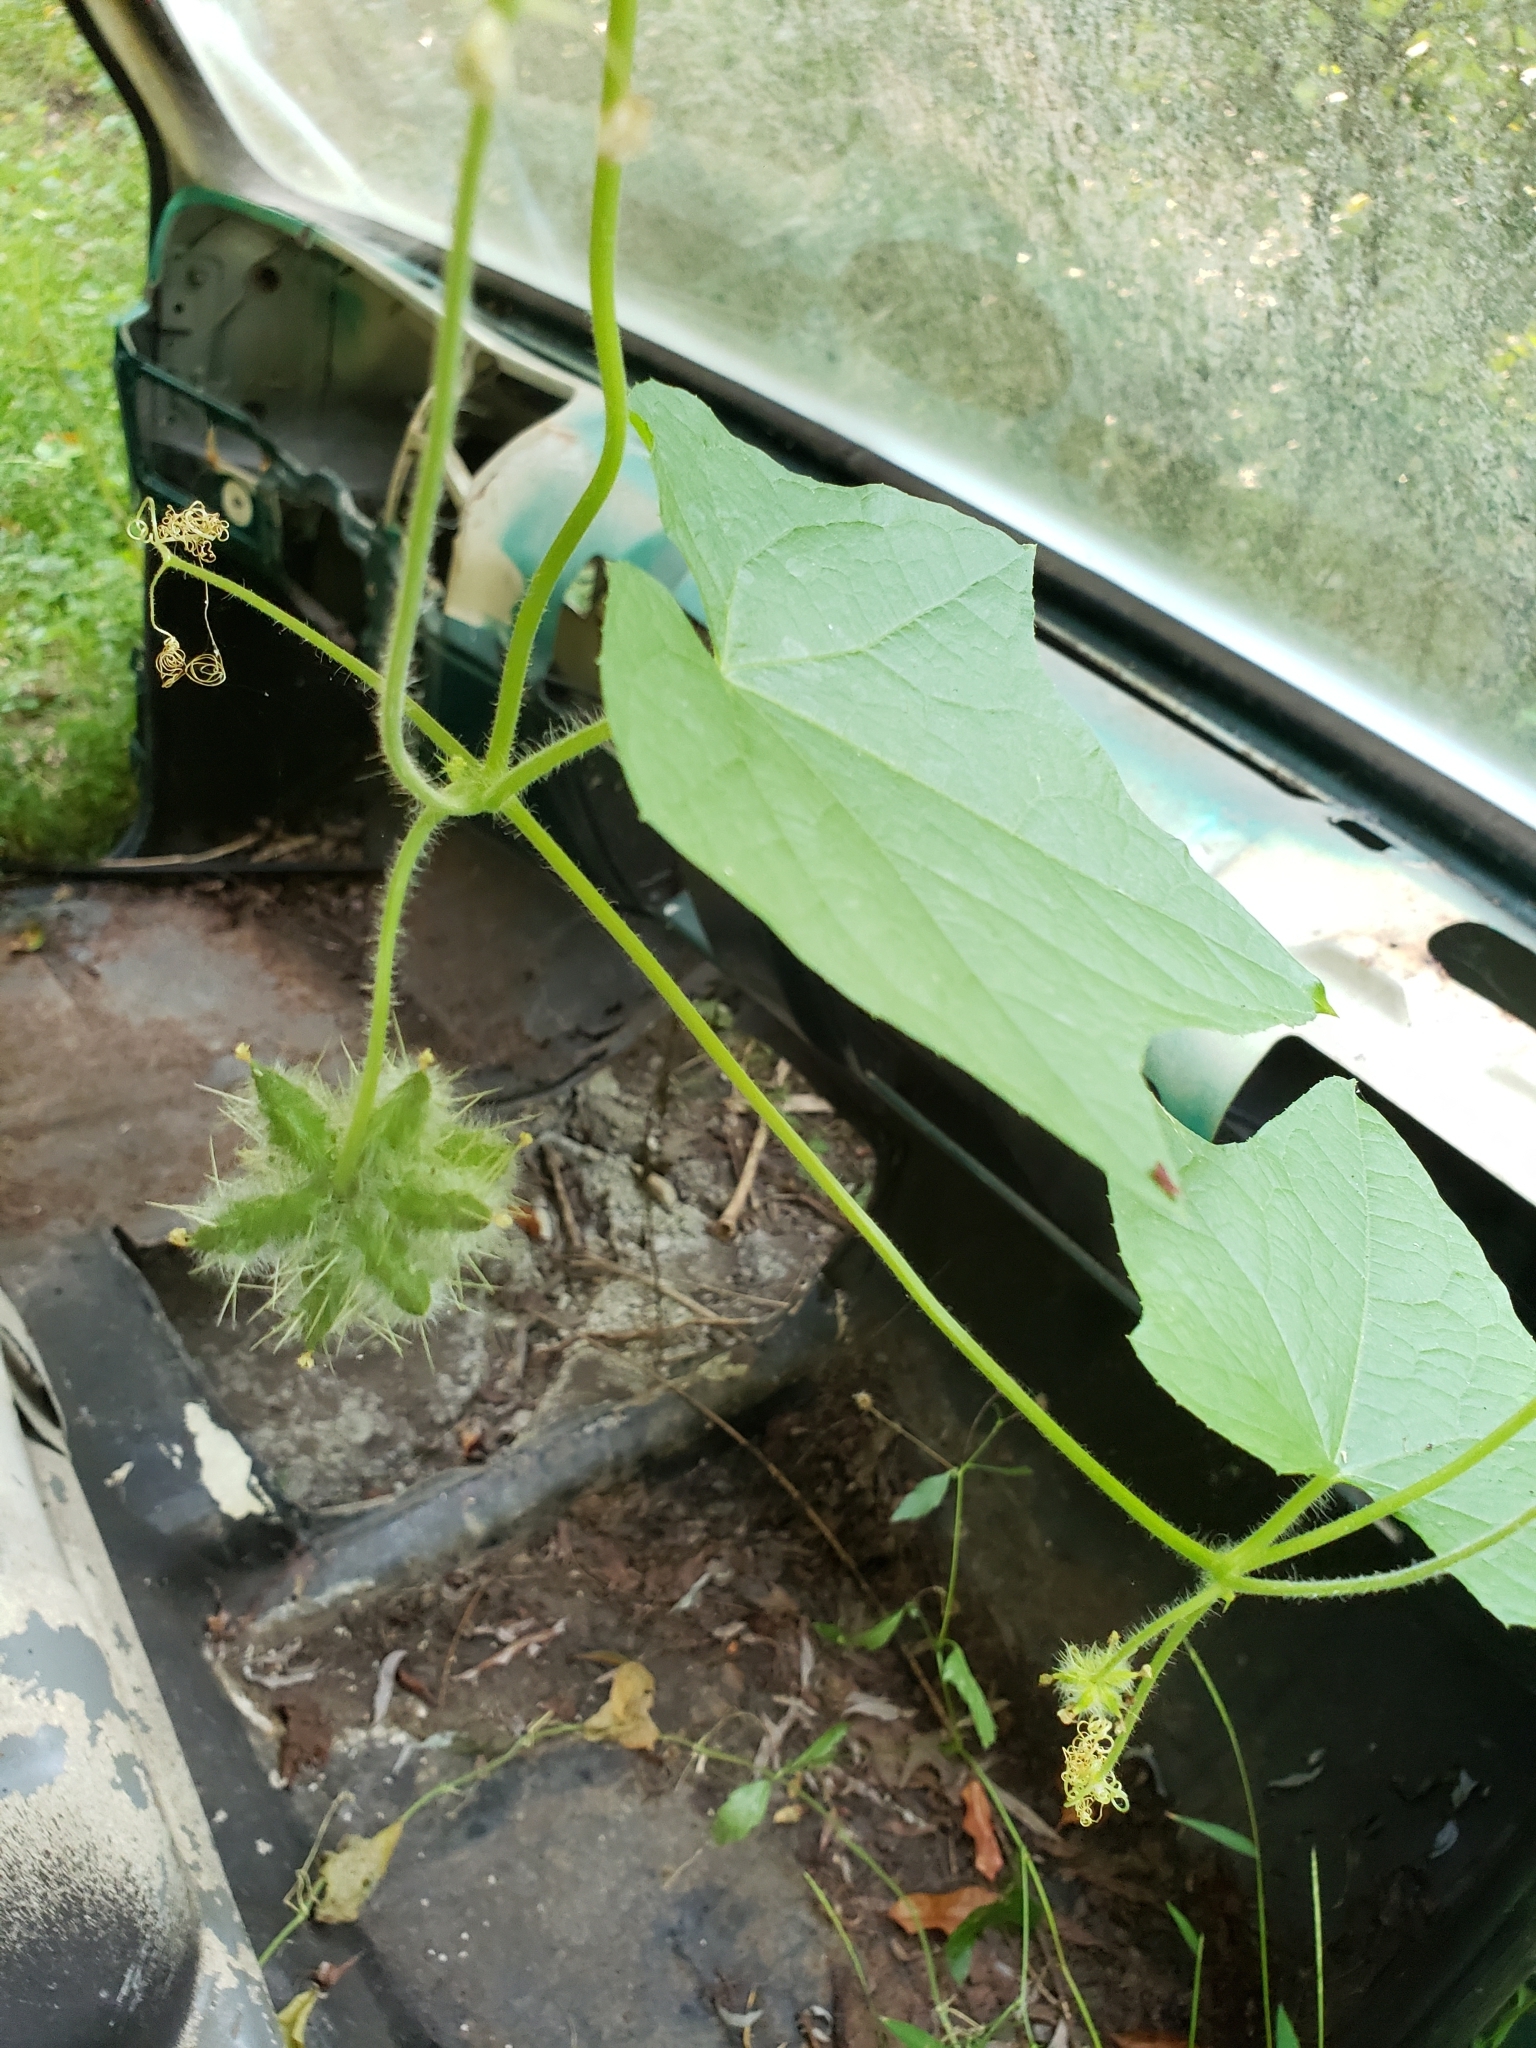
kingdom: Plantae
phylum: Tracheophyta
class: Magnoliopsida
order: Cucurbitales
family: Cucurbitaceae
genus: Sicyos
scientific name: Sicyos angulatus
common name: Angled burr cucumber
